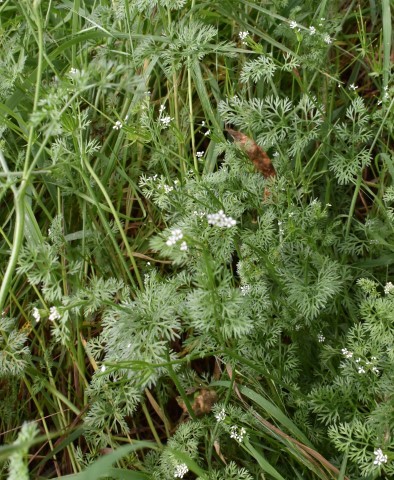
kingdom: Plantae
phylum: Tracheophyta
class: Magnoliopsida
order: Apiales
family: Apiaceae
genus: Scandix
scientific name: Scandix pecten-veneris
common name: Shepherd's-needle
